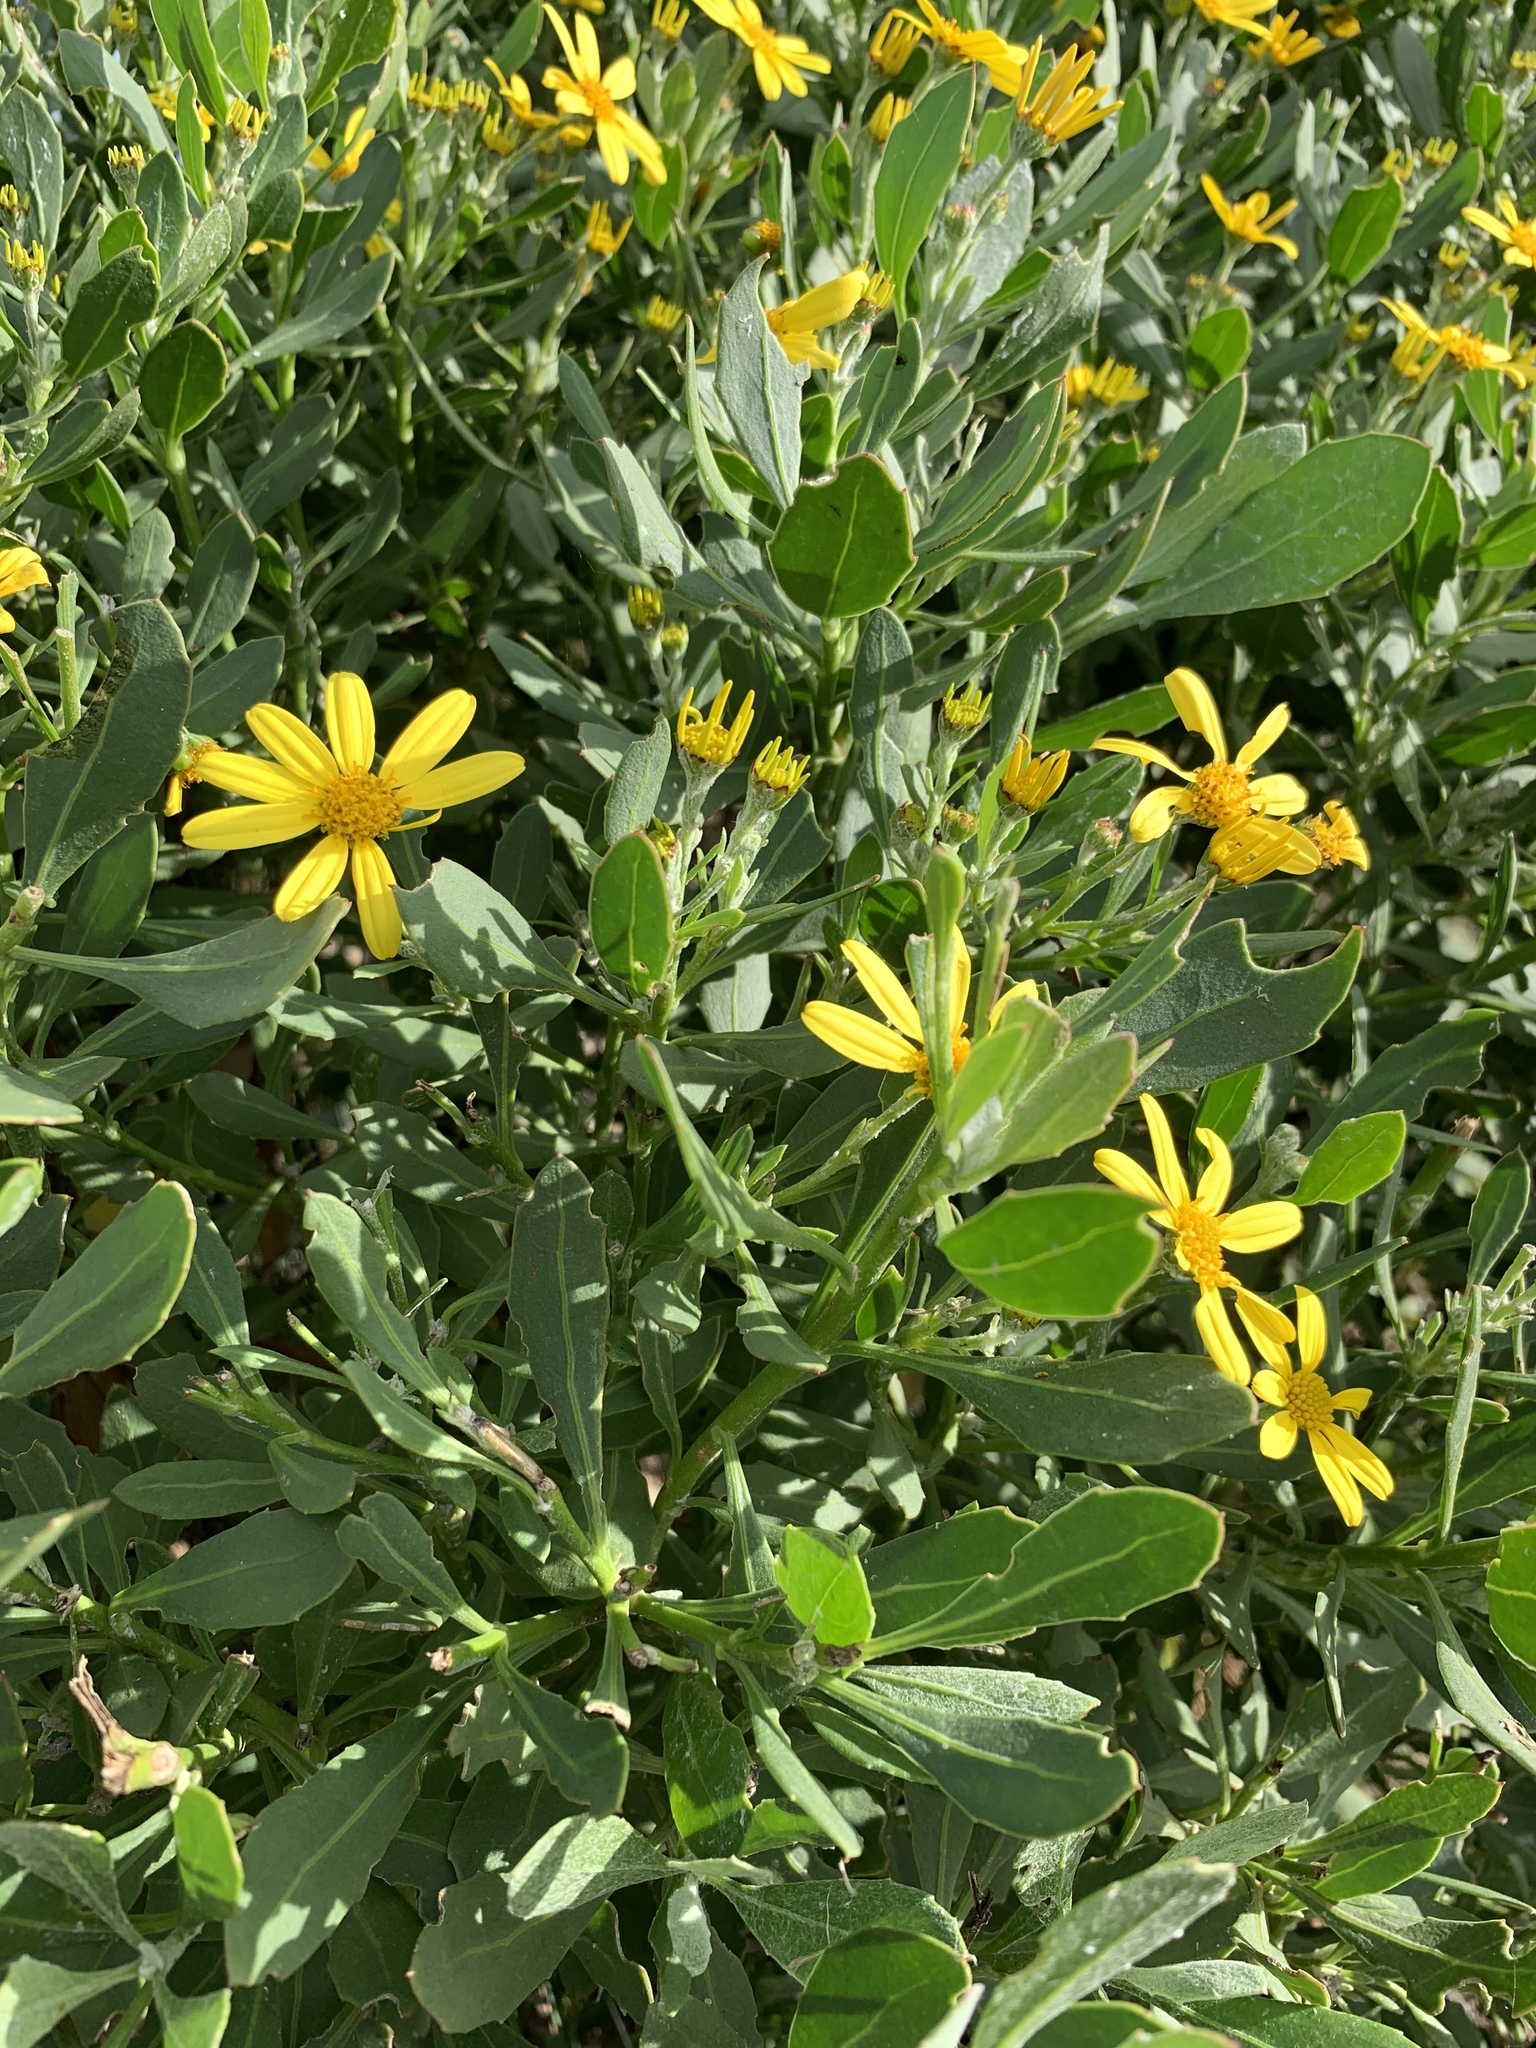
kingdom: Plantae
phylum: Tracheophyta
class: Magnoliopsida
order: Asterales
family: Asteraceae
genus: Osteospermum
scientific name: Osteospermum moniliferum
